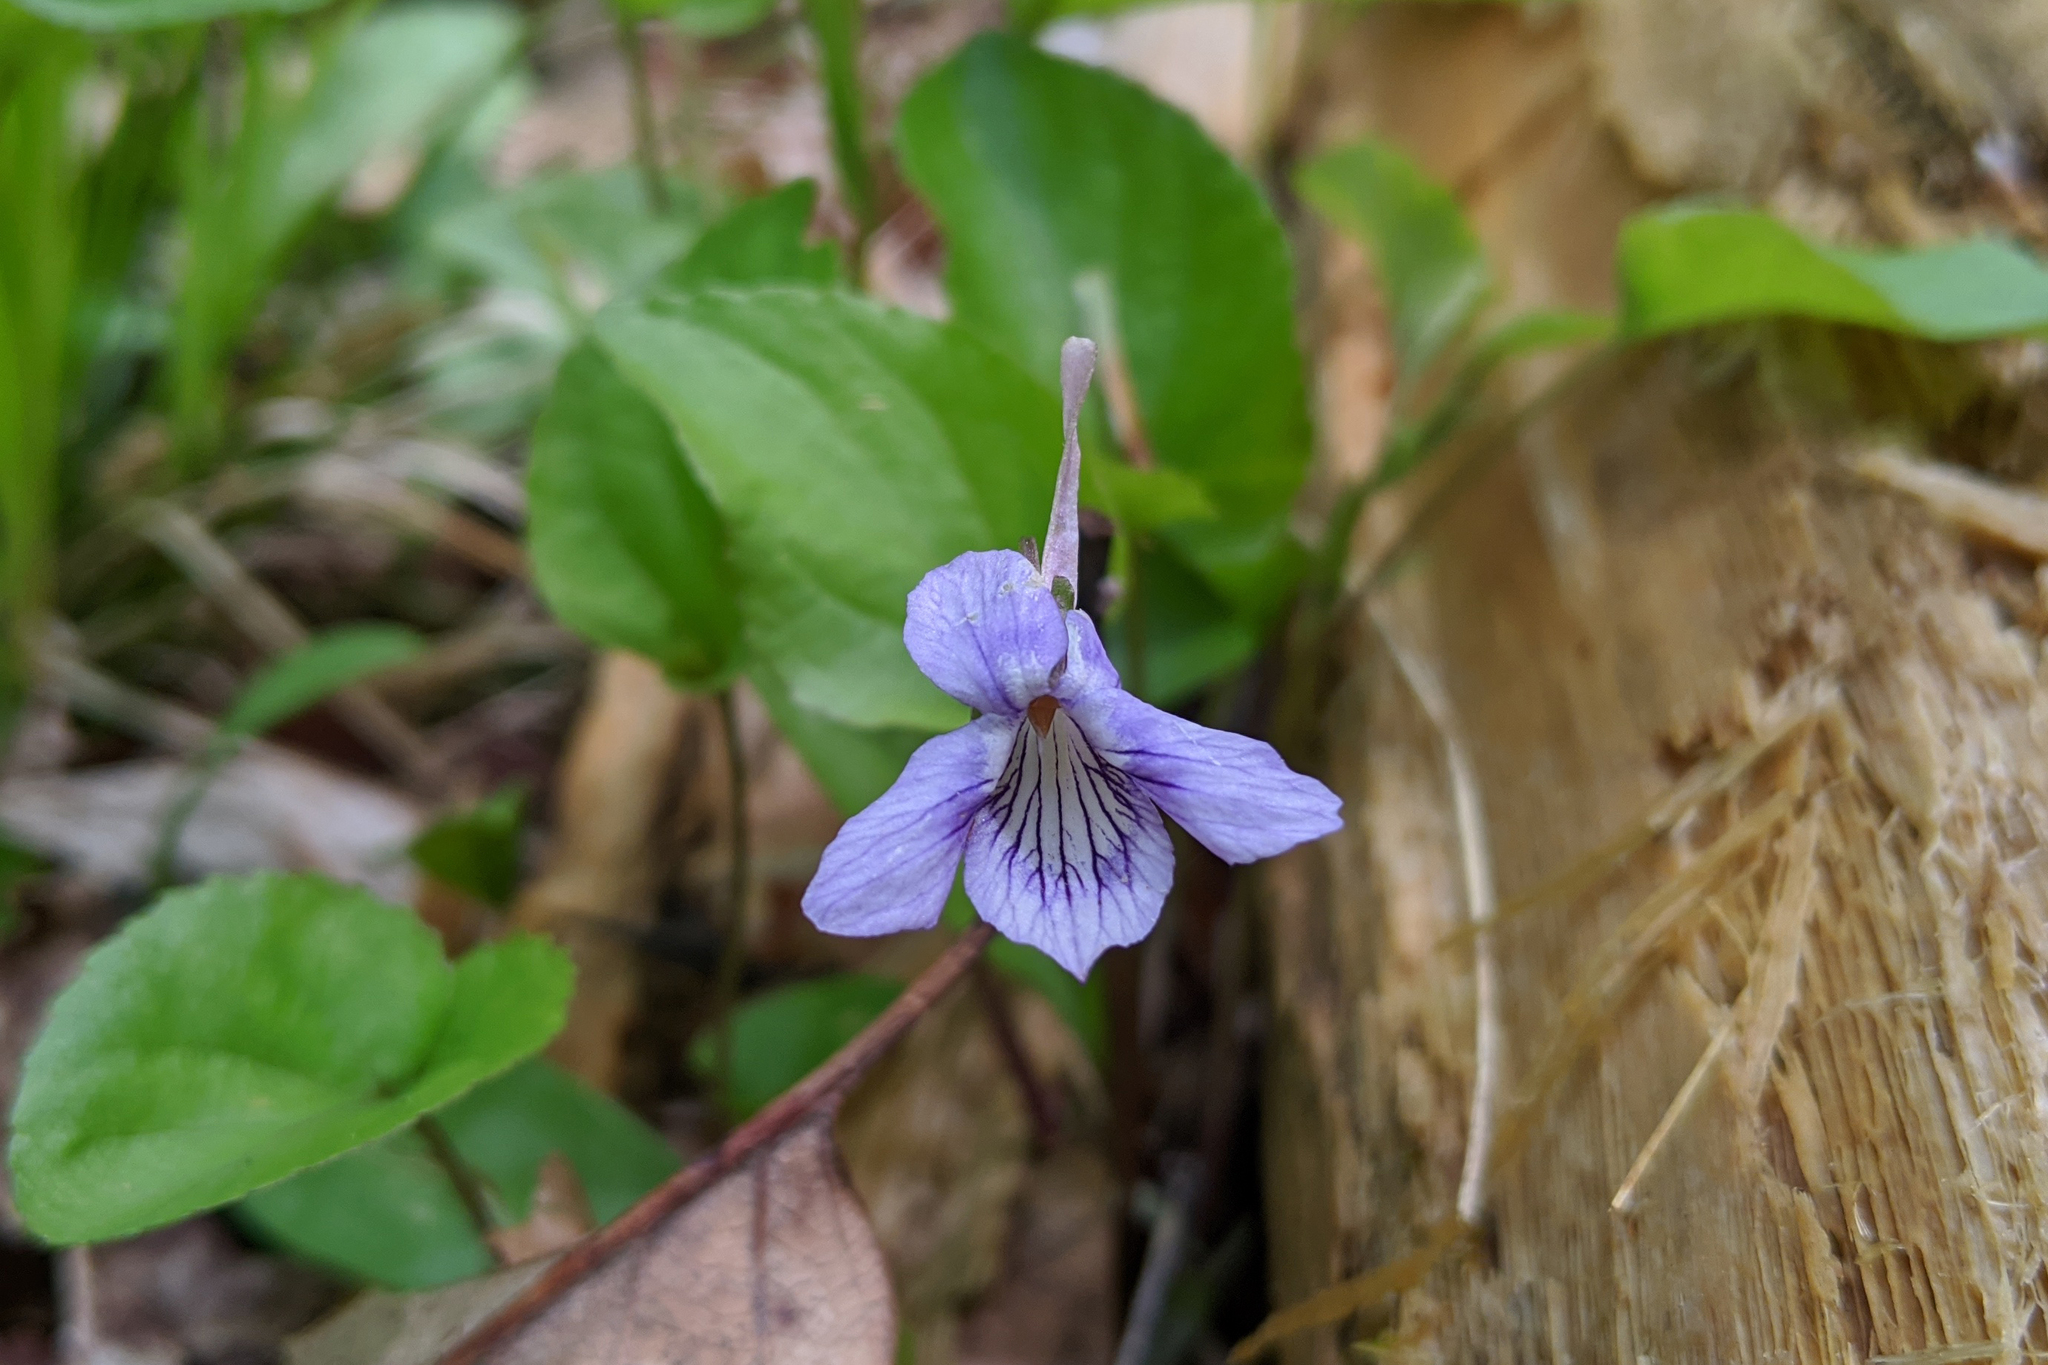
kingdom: Plantae
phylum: Tracheophyta
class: Magnoliopsida
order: Malpighiales
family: Violaceae
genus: Viola
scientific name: Viola rostrata
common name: Long-spur violet
